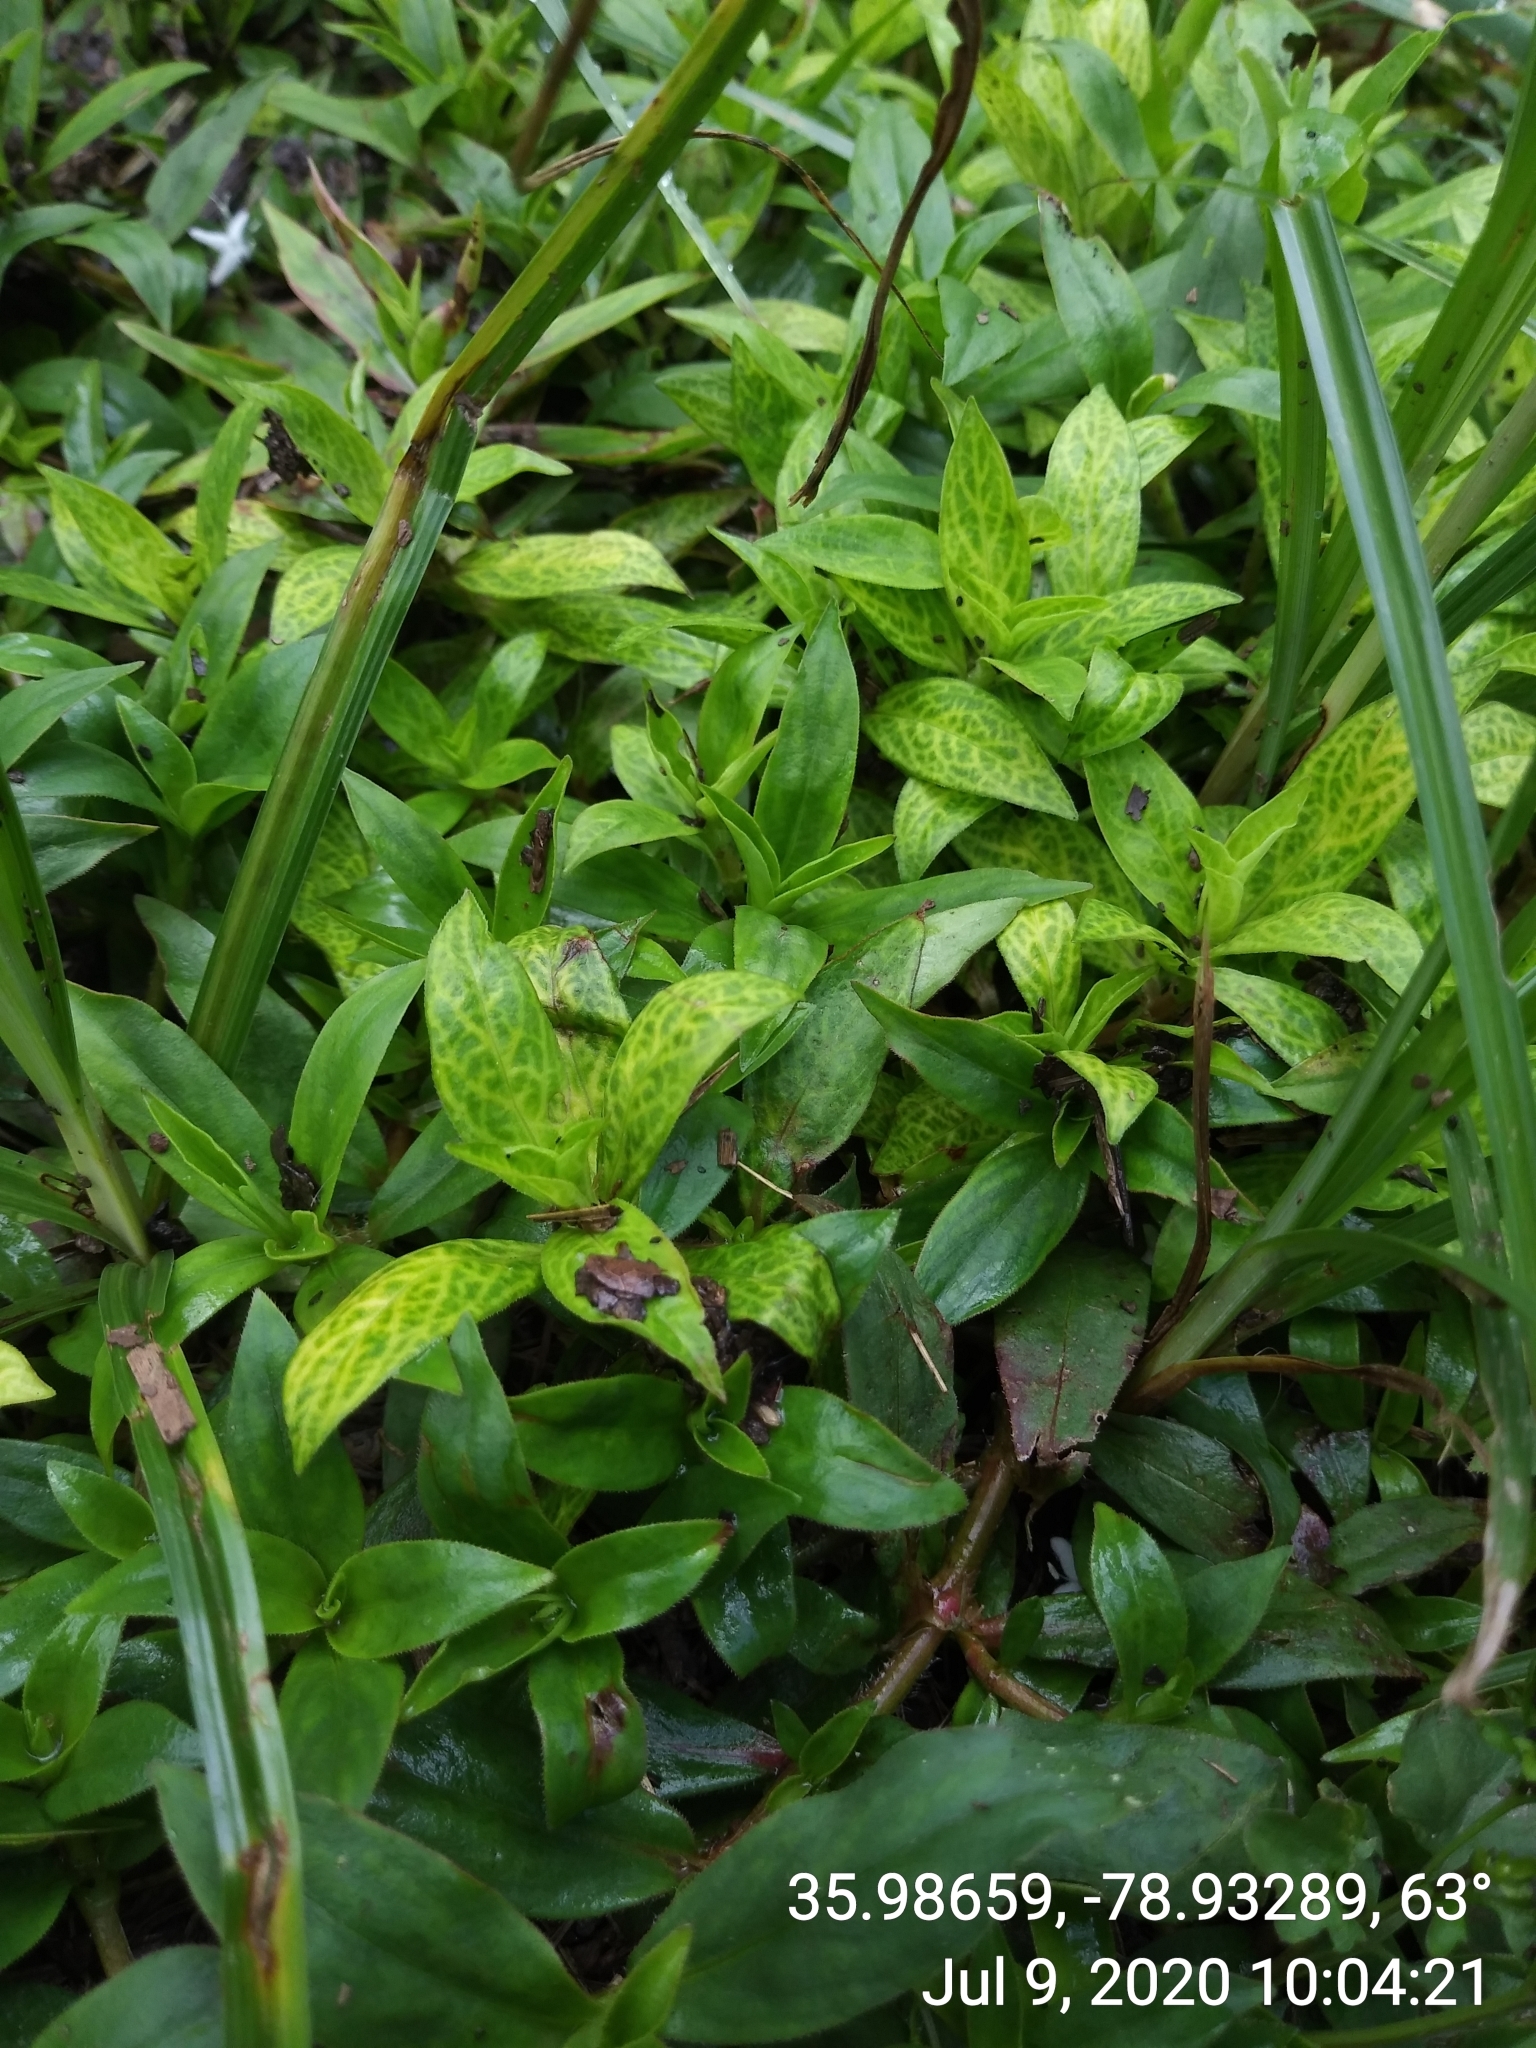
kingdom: Viruses
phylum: Kitrinoviricota
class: Alsuviricetes
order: Martellivirales
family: Closteroviridae
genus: Crinivirus
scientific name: Crinivirus Diodia vein chlorosis virus
